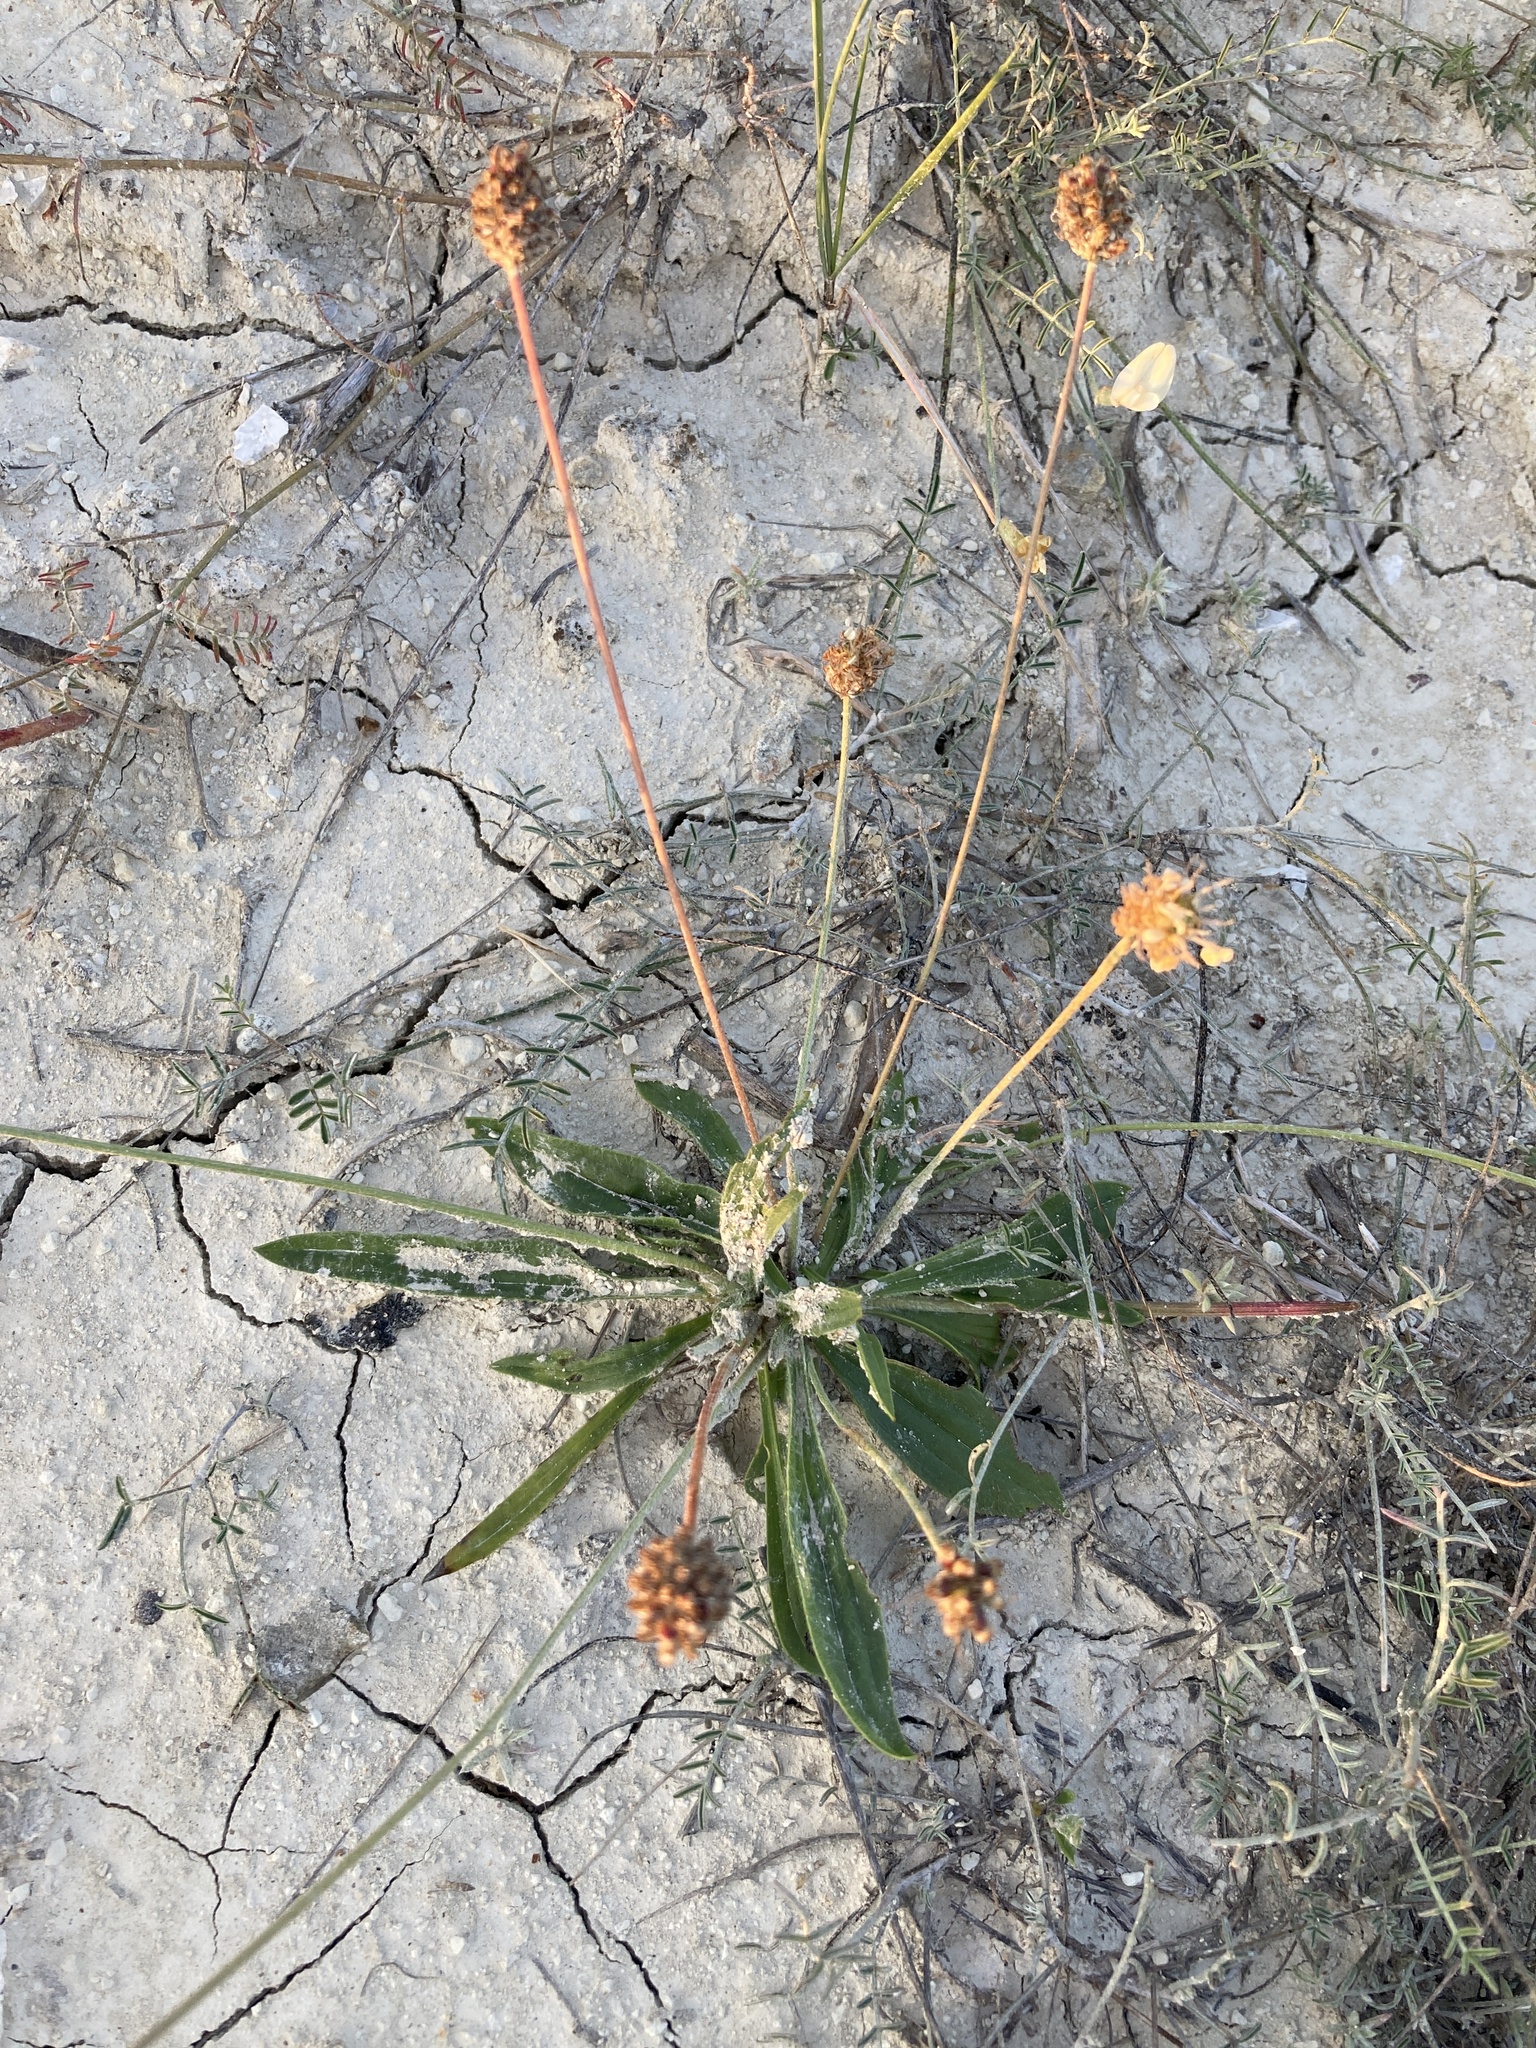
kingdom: Plantae
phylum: Tracheophyta
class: Magnoliopsida
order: Lamiales
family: Plantaginaceae
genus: Plantago
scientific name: Plantago lanceolata
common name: Ribwort plantain
